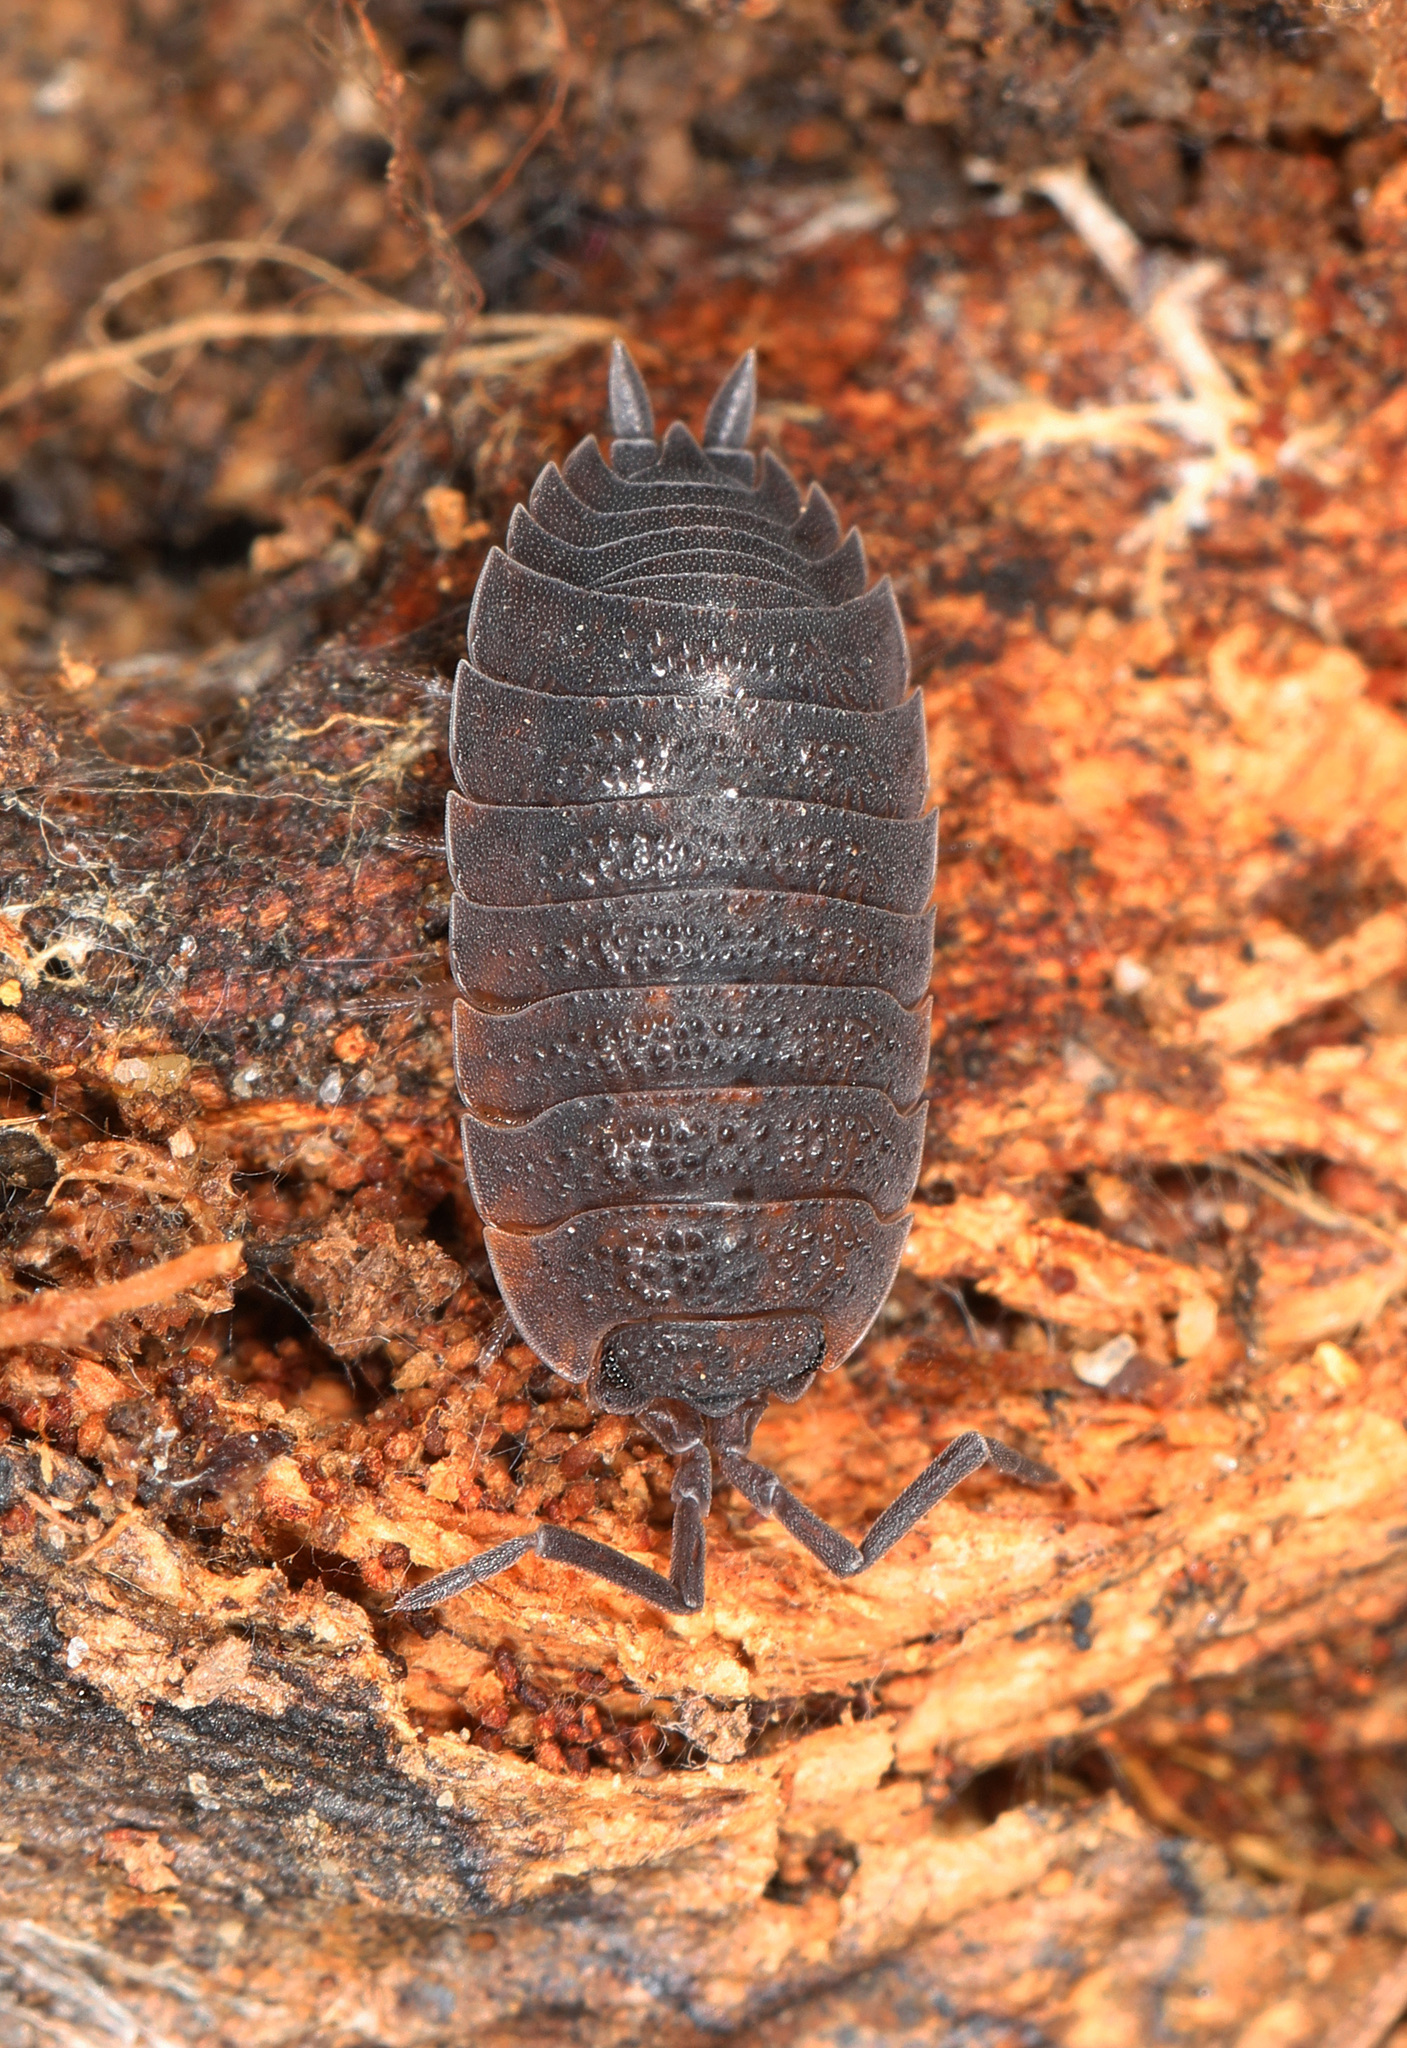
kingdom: Animalia
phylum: Arthropoda
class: Malacostraca
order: Isopoda
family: Porcellionidae
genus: Porcellio
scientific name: Porcellio scaber
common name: Common rough woodlouse
